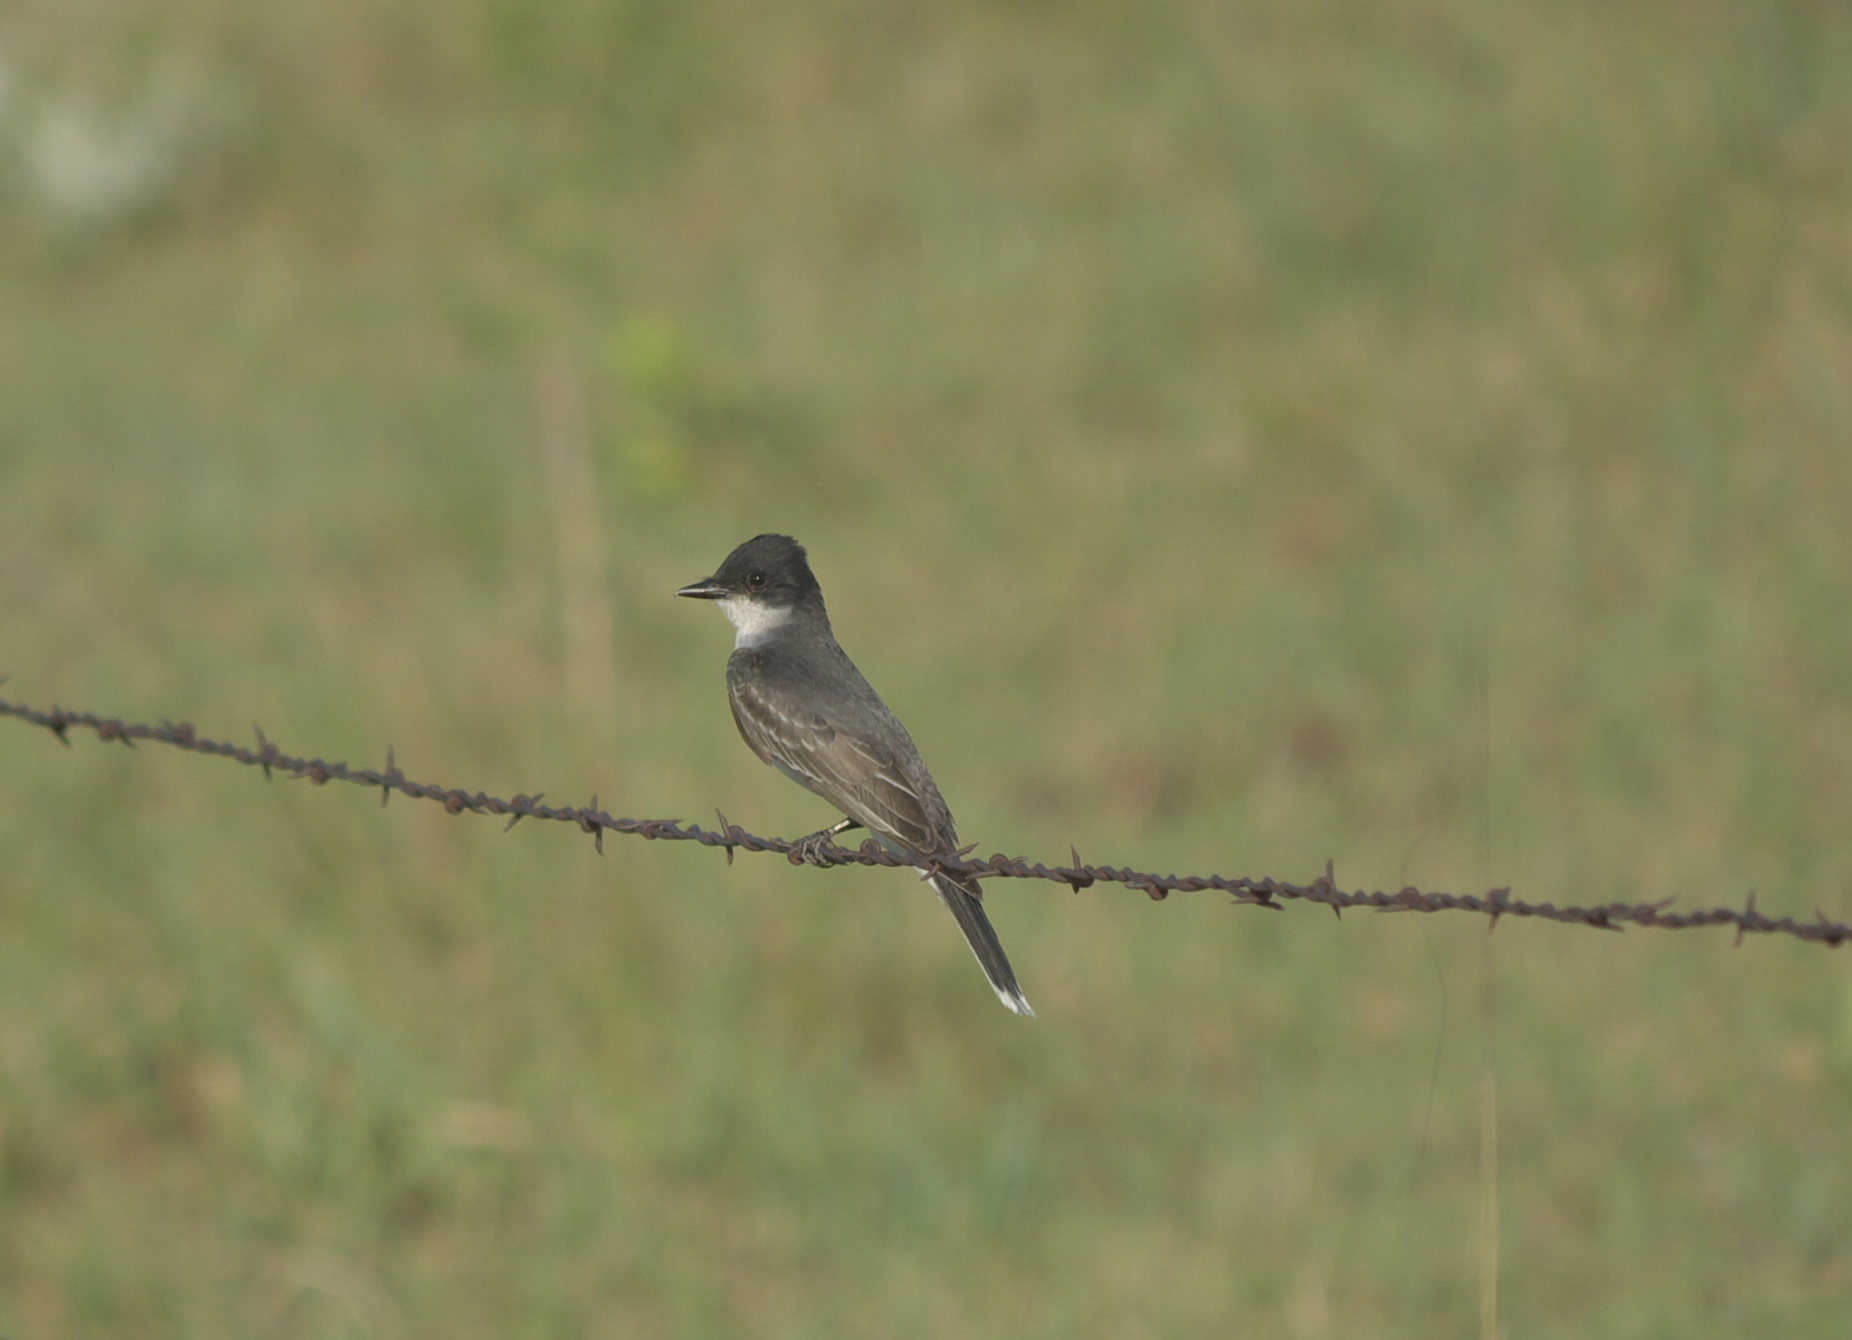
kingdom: Animalia
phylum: Chordata
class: Aves
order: Passeriformes
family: Tyrannidae
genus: Tyrannus
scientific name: Tyrannus tyrannus
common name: Eastern kingbird
